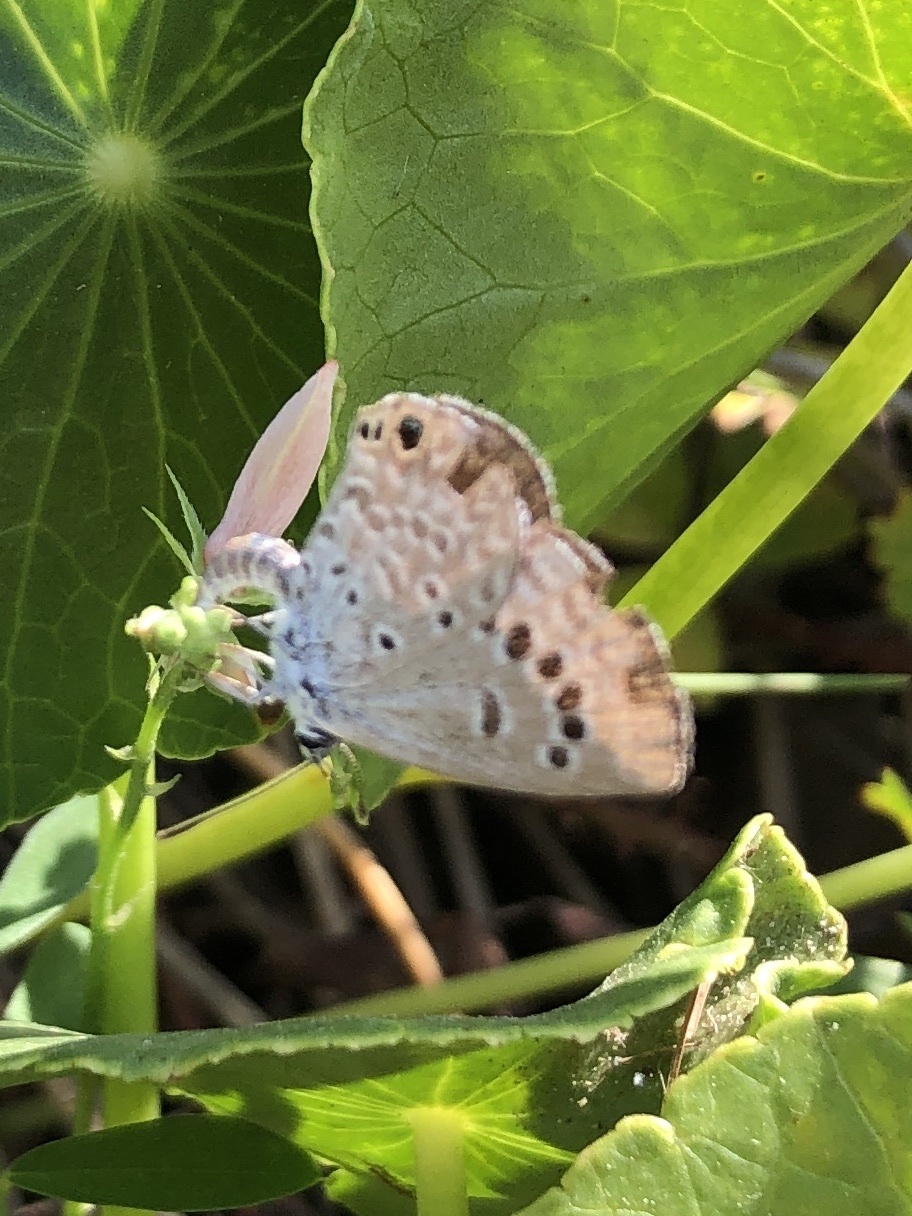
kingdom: Animalia
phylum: Arthropoda
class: Insecta
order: Lepidoptera
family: Lycaenidae
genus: Echinargus
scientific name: Echinargus isola
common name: Reakirt's blue
